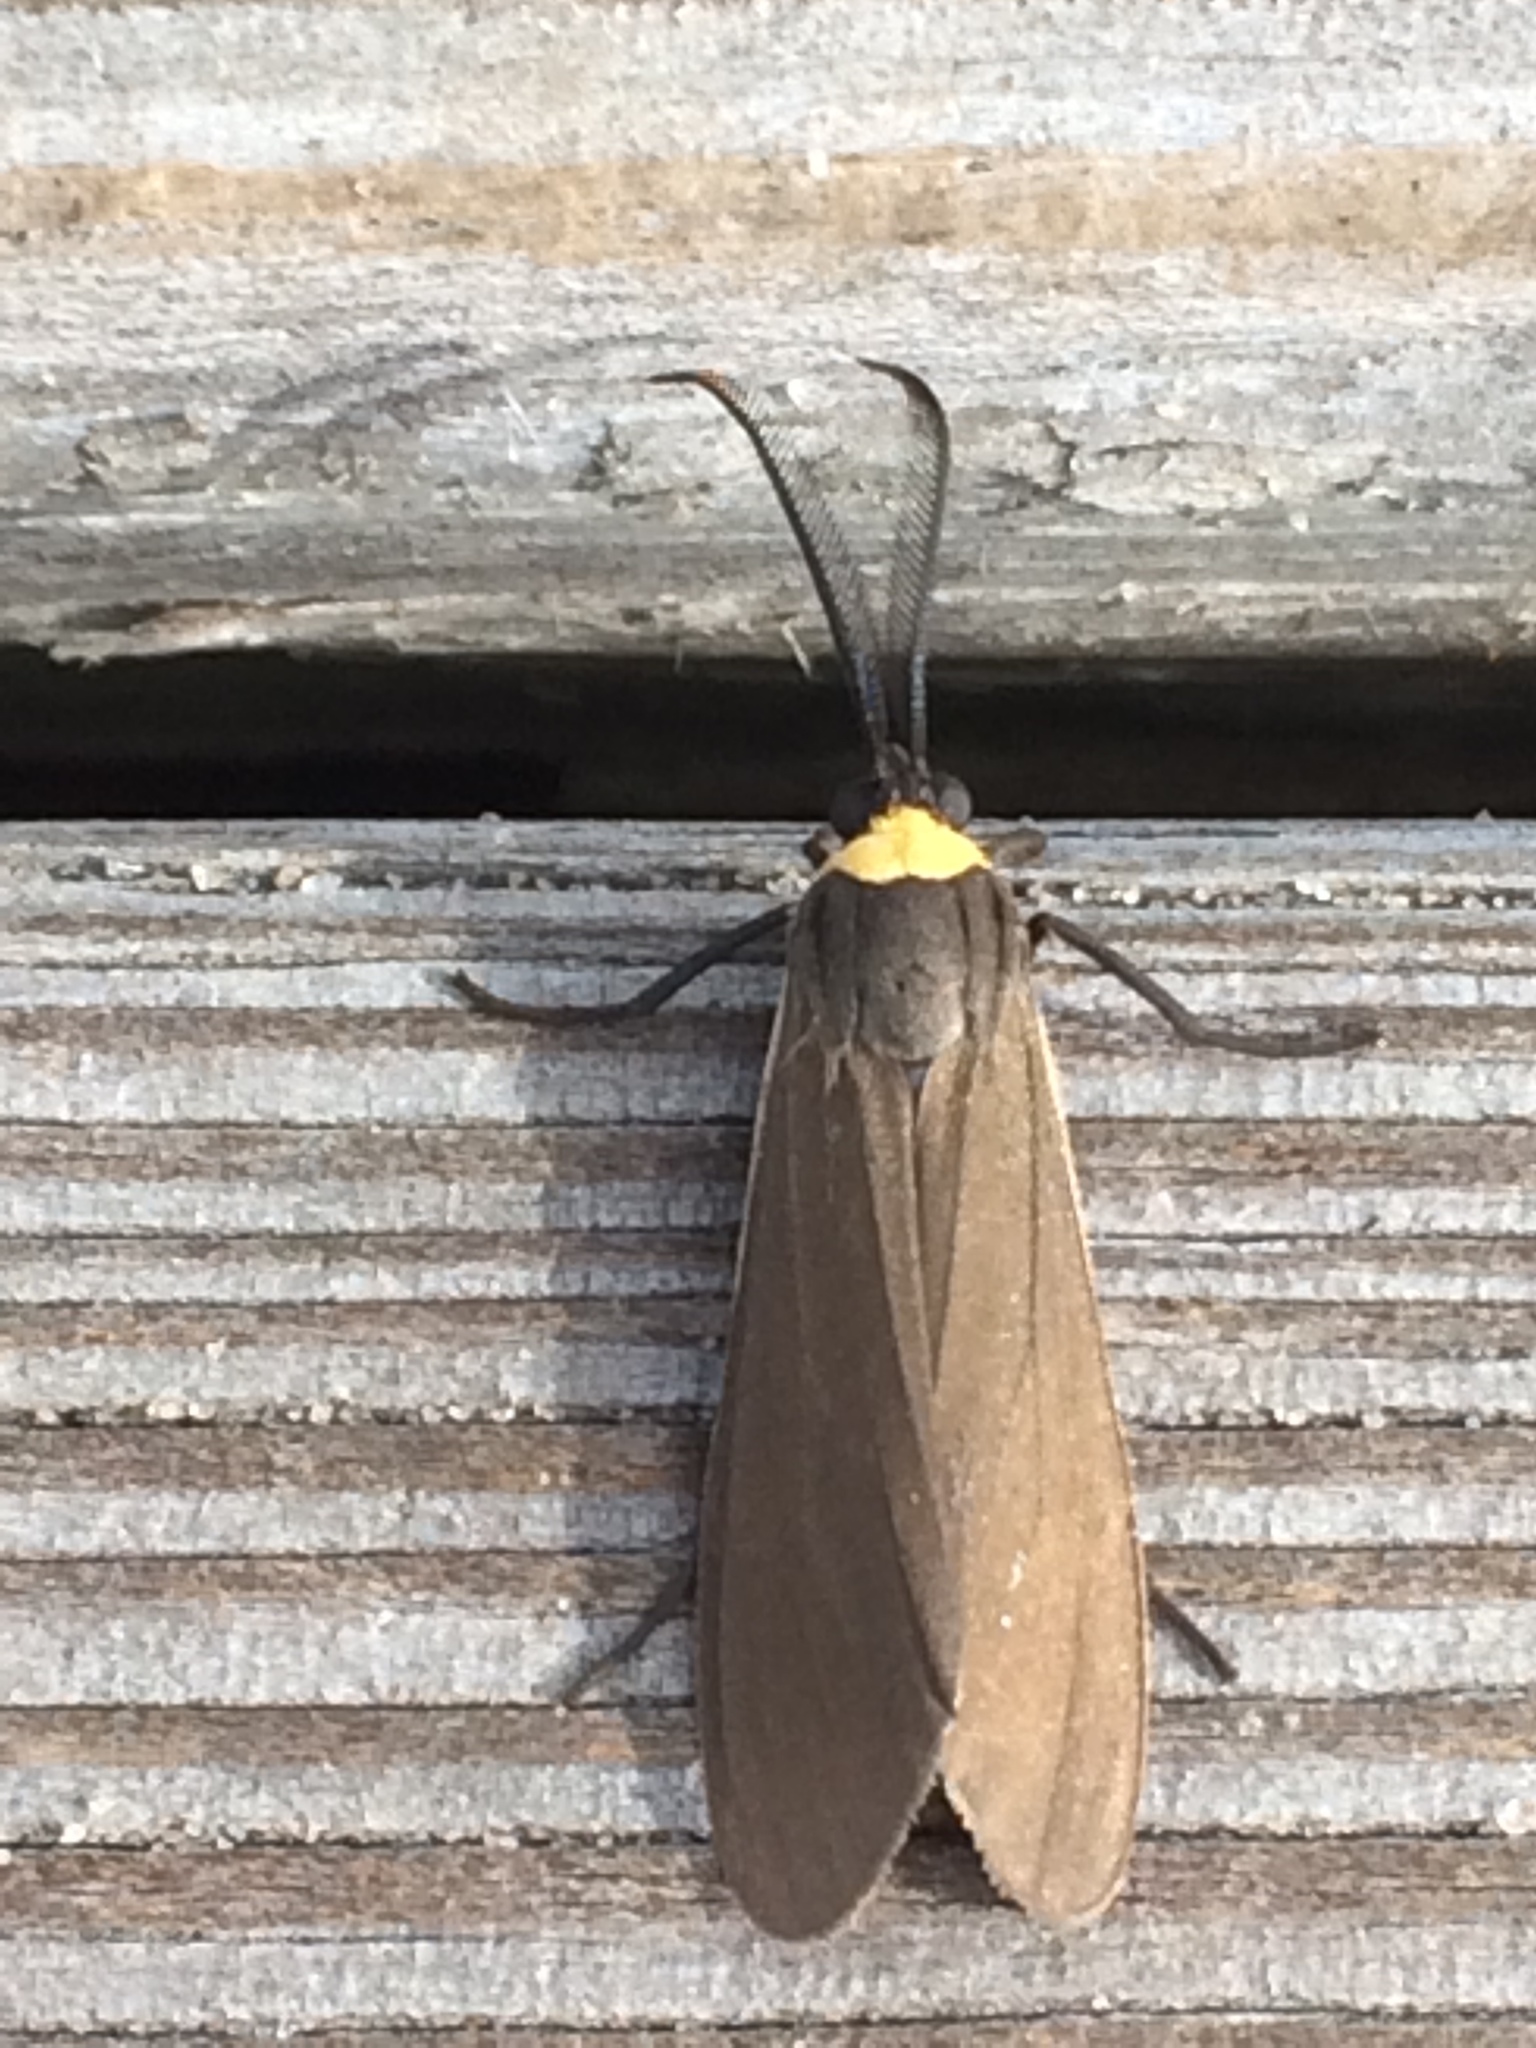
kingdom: Animalia
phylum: Arthropoda
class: Insecta
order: Lepidoptera
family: Erebidae
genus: Cisseps
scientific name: Cisseps fulvicollis
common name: Yellow-collared scape moth
